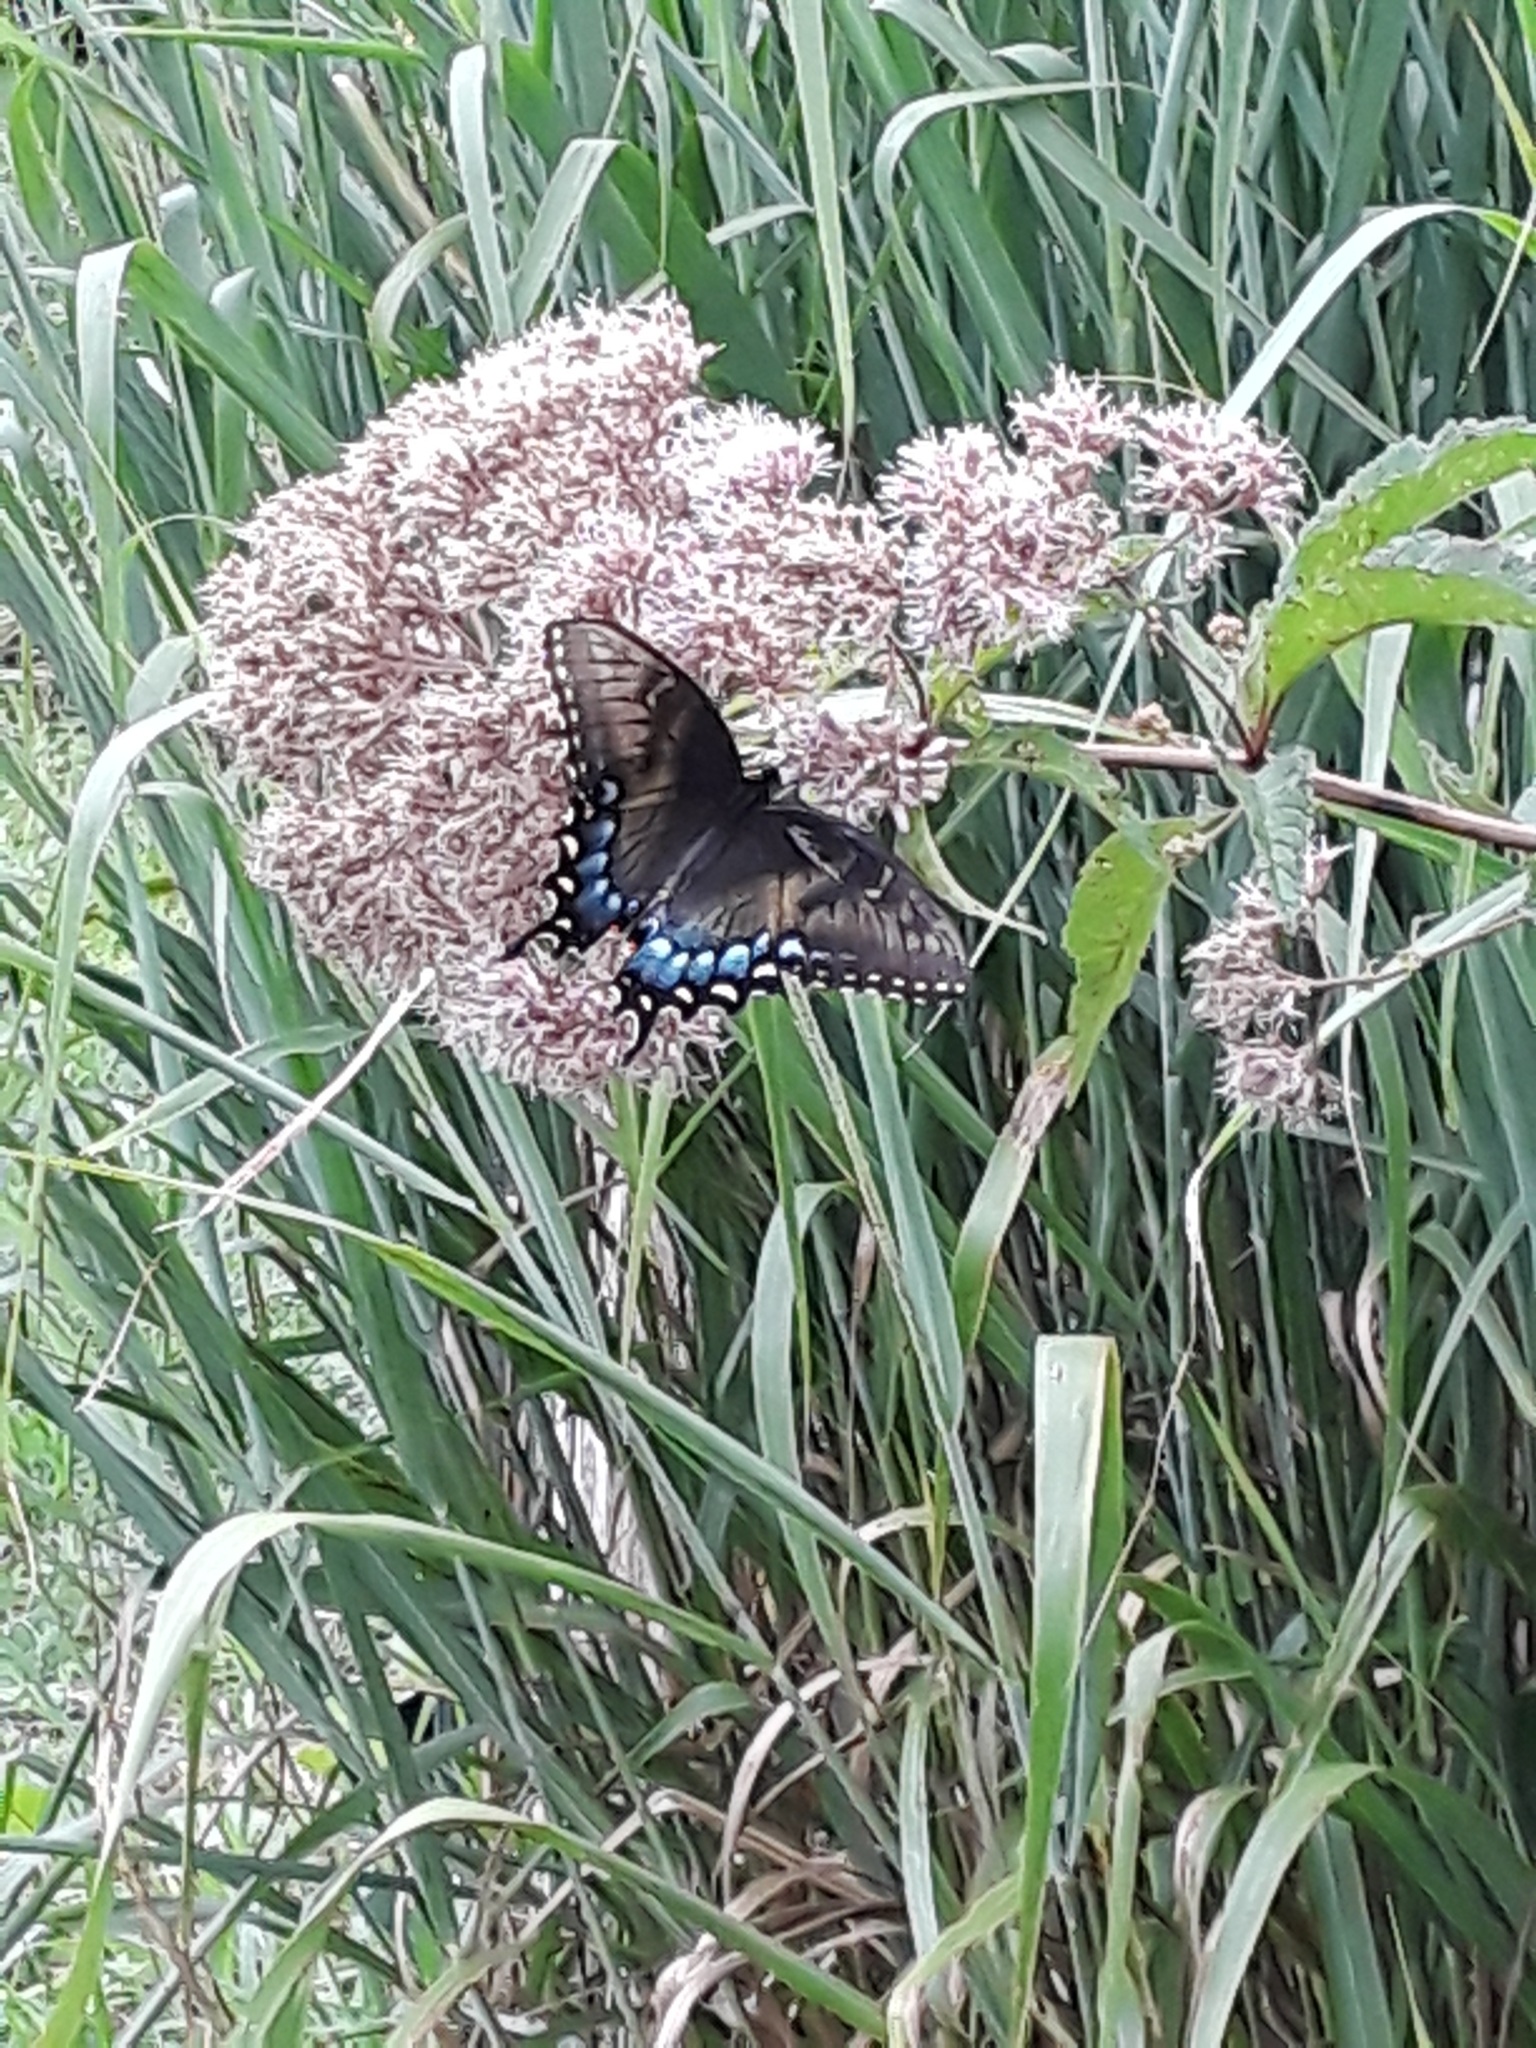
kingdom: Animalia
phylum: Arthropoda
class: Insecta
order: Lepidoptera
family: Papilionidae
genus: Papilio
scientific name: Papilio glaucus
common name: Tiger swallowtail
